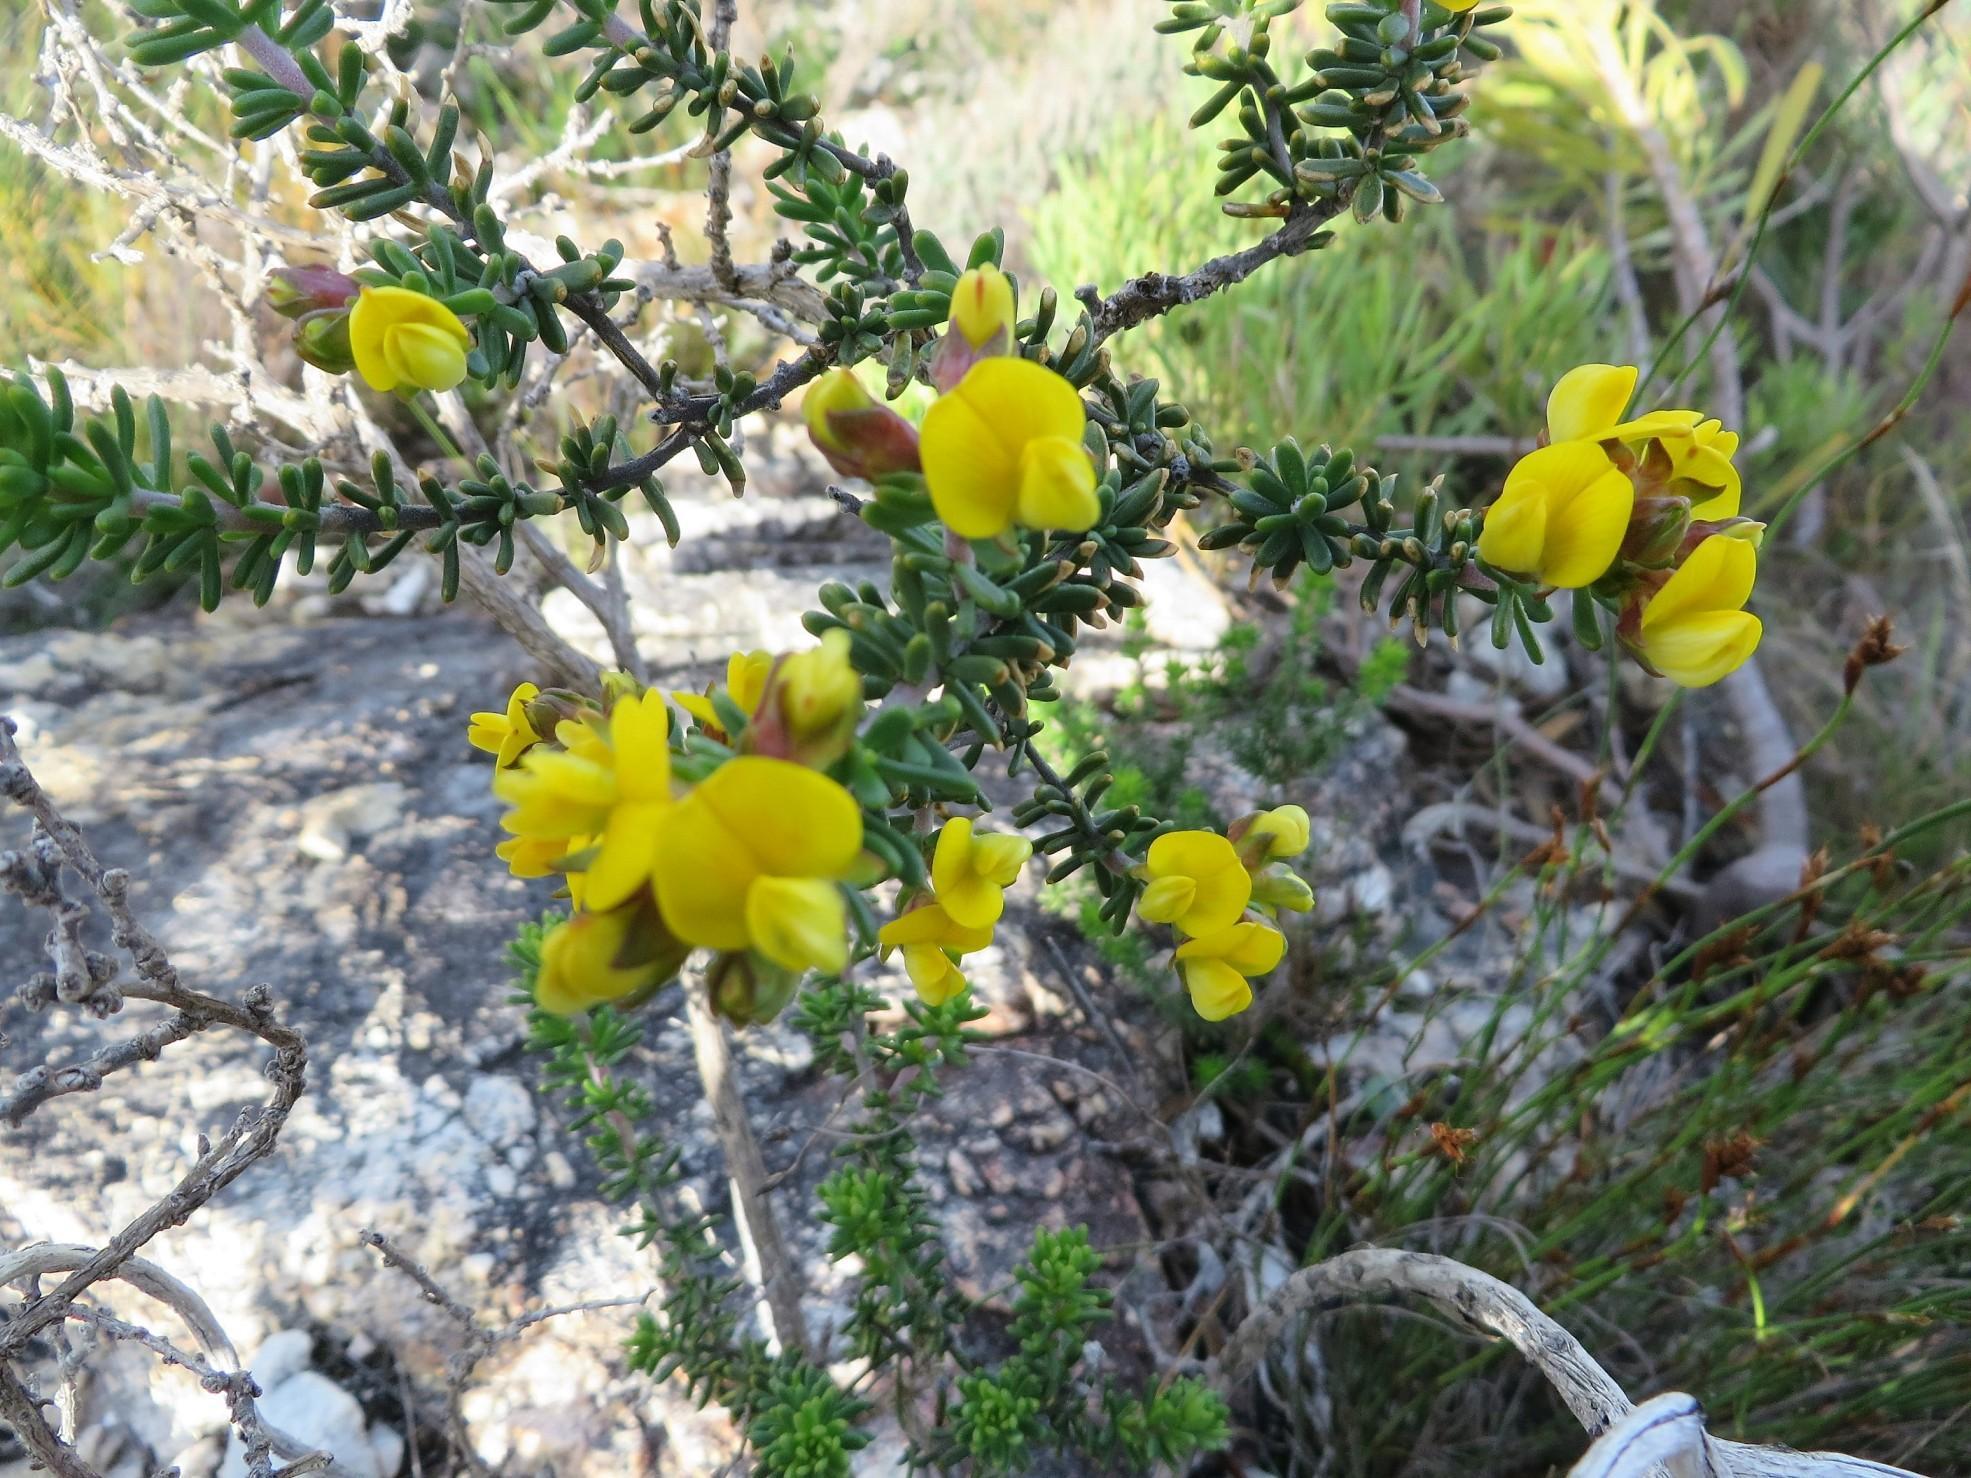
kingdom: Plantae
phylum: Tracheophyta
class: Magnoliopsida
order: Fabales
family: Fabaceae
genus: Aspalathus
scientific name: Aspalathus carnosa
